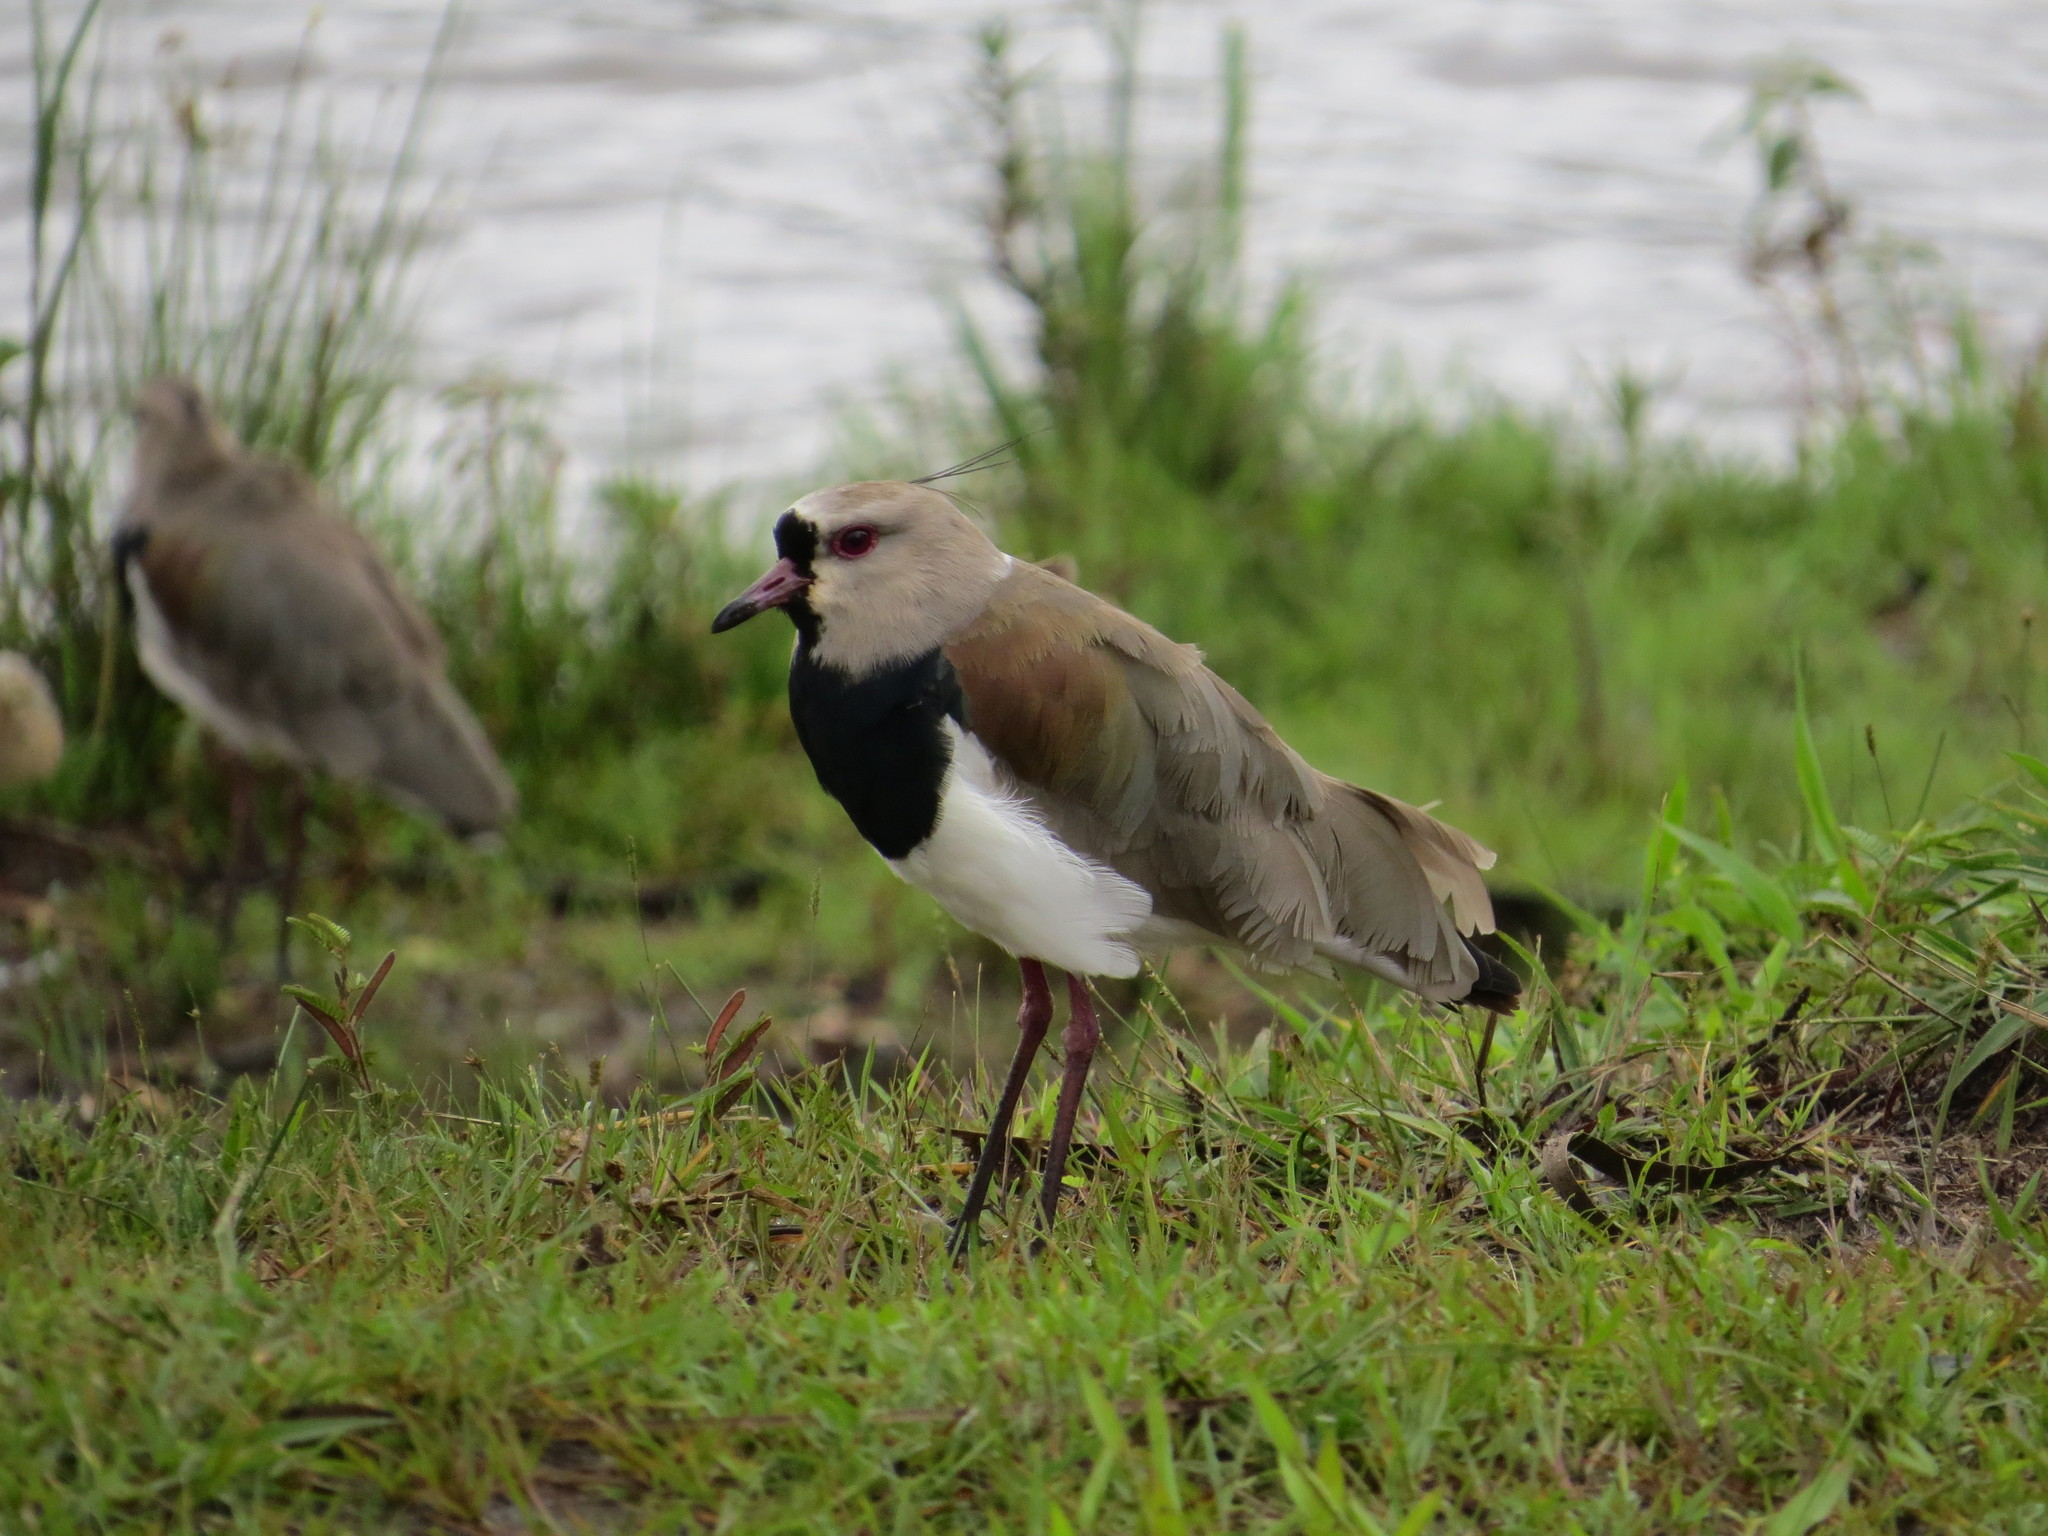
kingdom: Animalia
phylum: Chordata
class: Aves
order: Charadriiformes
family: Charadriidae
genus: Vanellus
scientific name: Vanellus chilensis
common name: Southern lapwing
